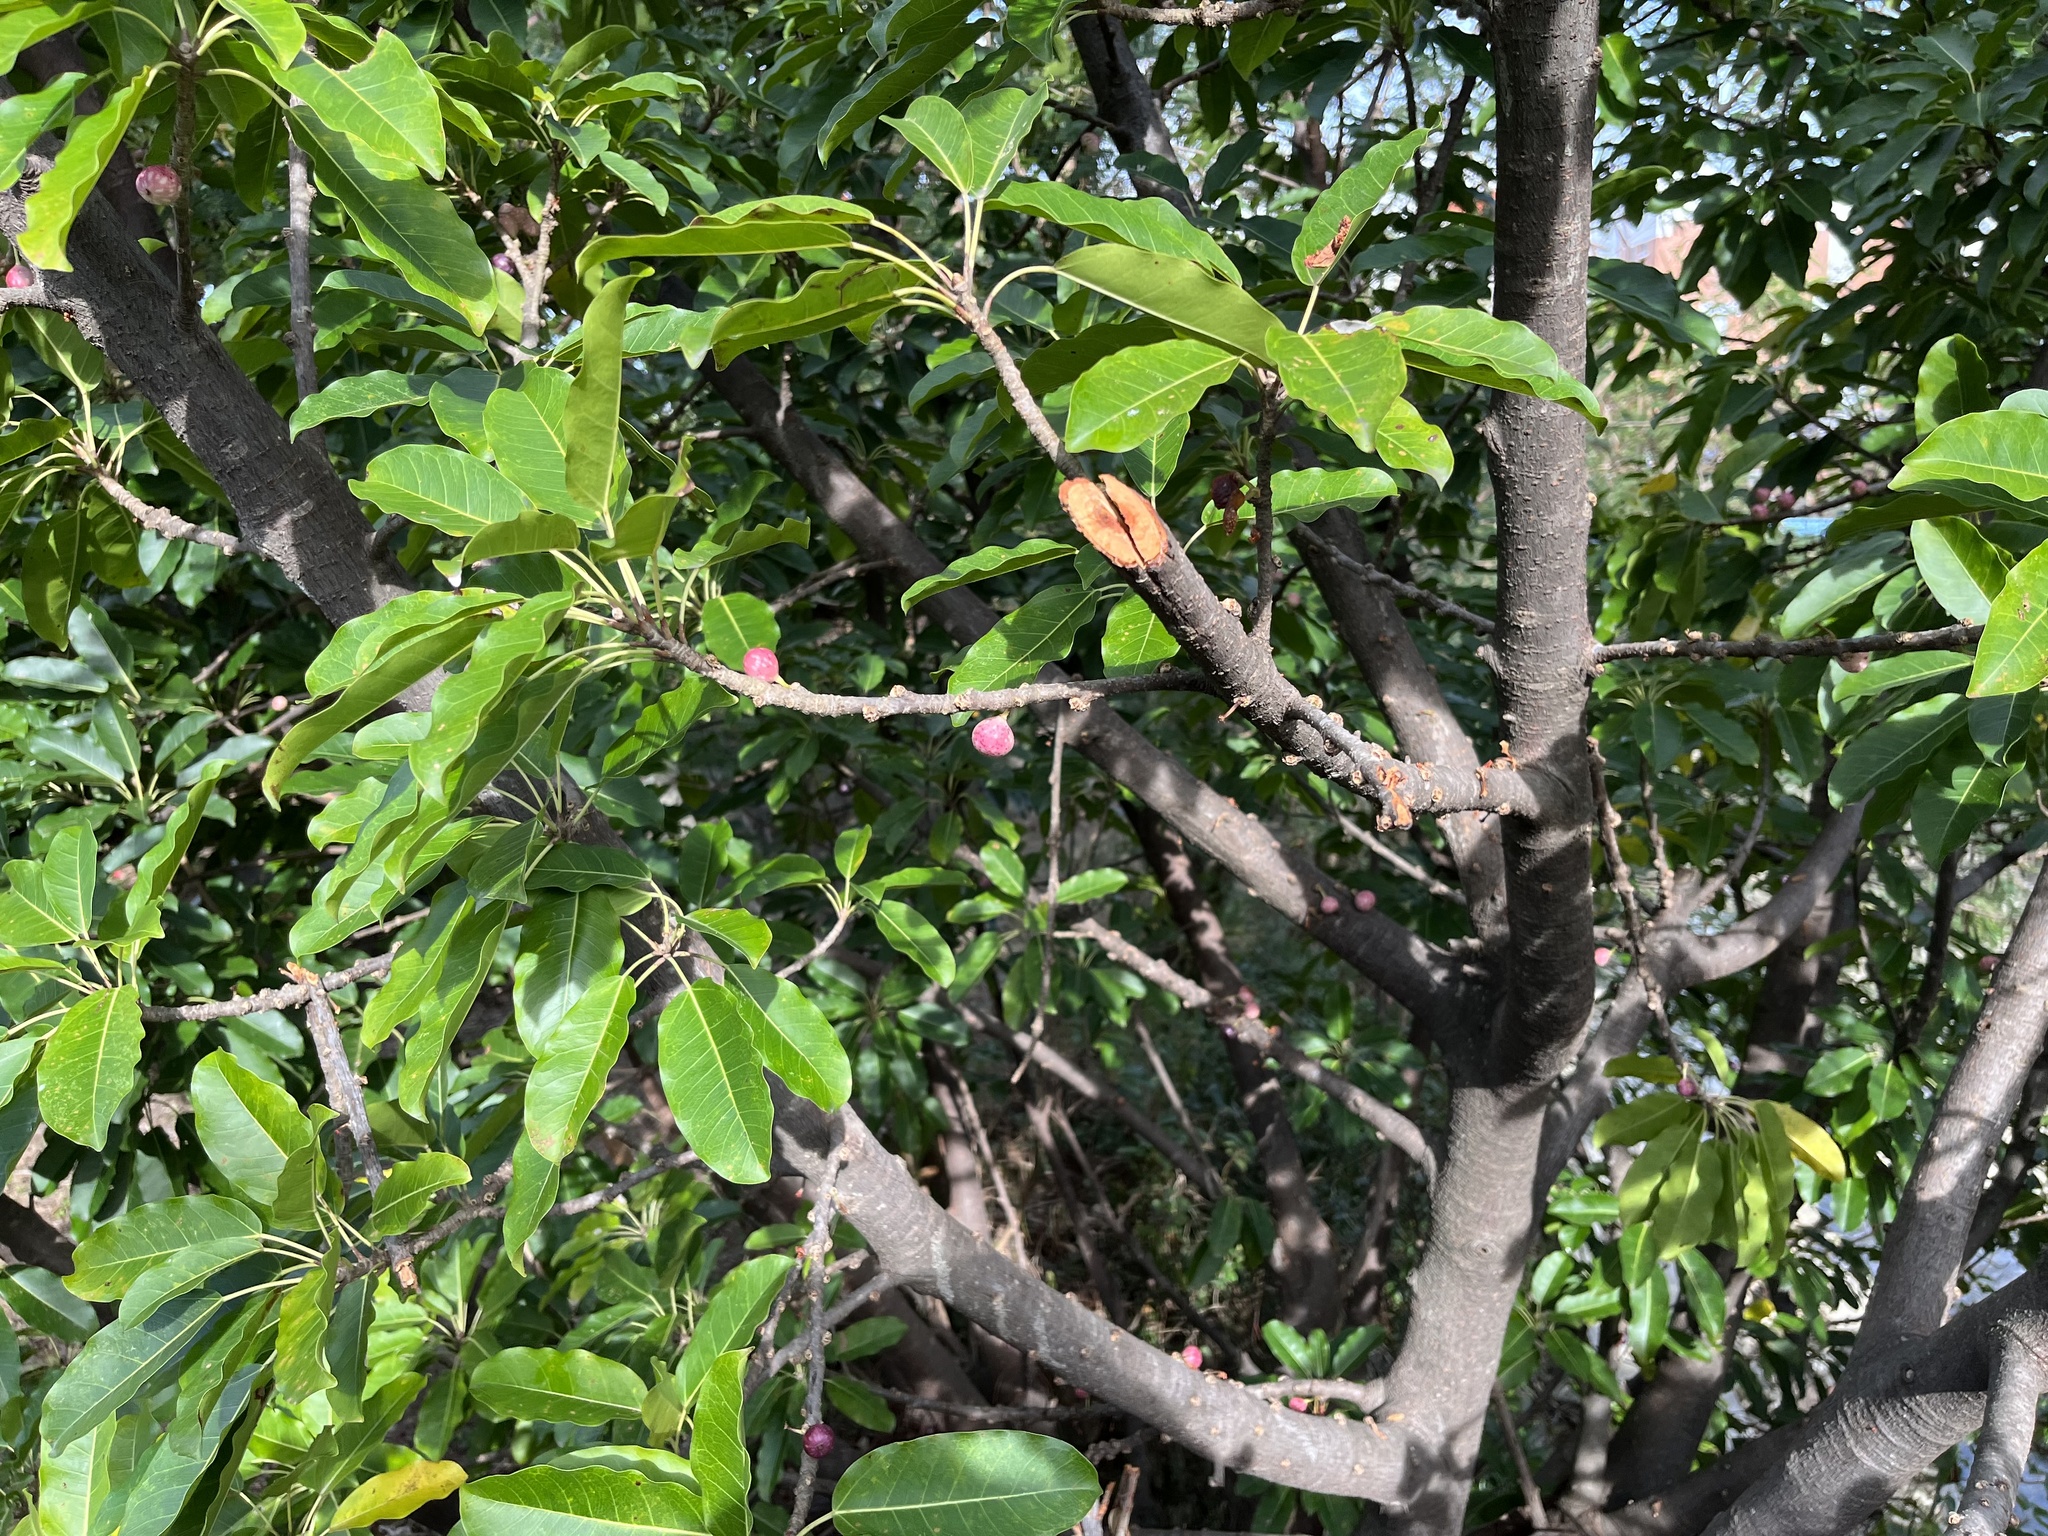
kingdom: Plantae
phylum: Tracheophyta
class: Magnoliopsida
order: Rosales
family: Moraceae
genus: Ficus
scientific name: Ficus subpisocarpa
